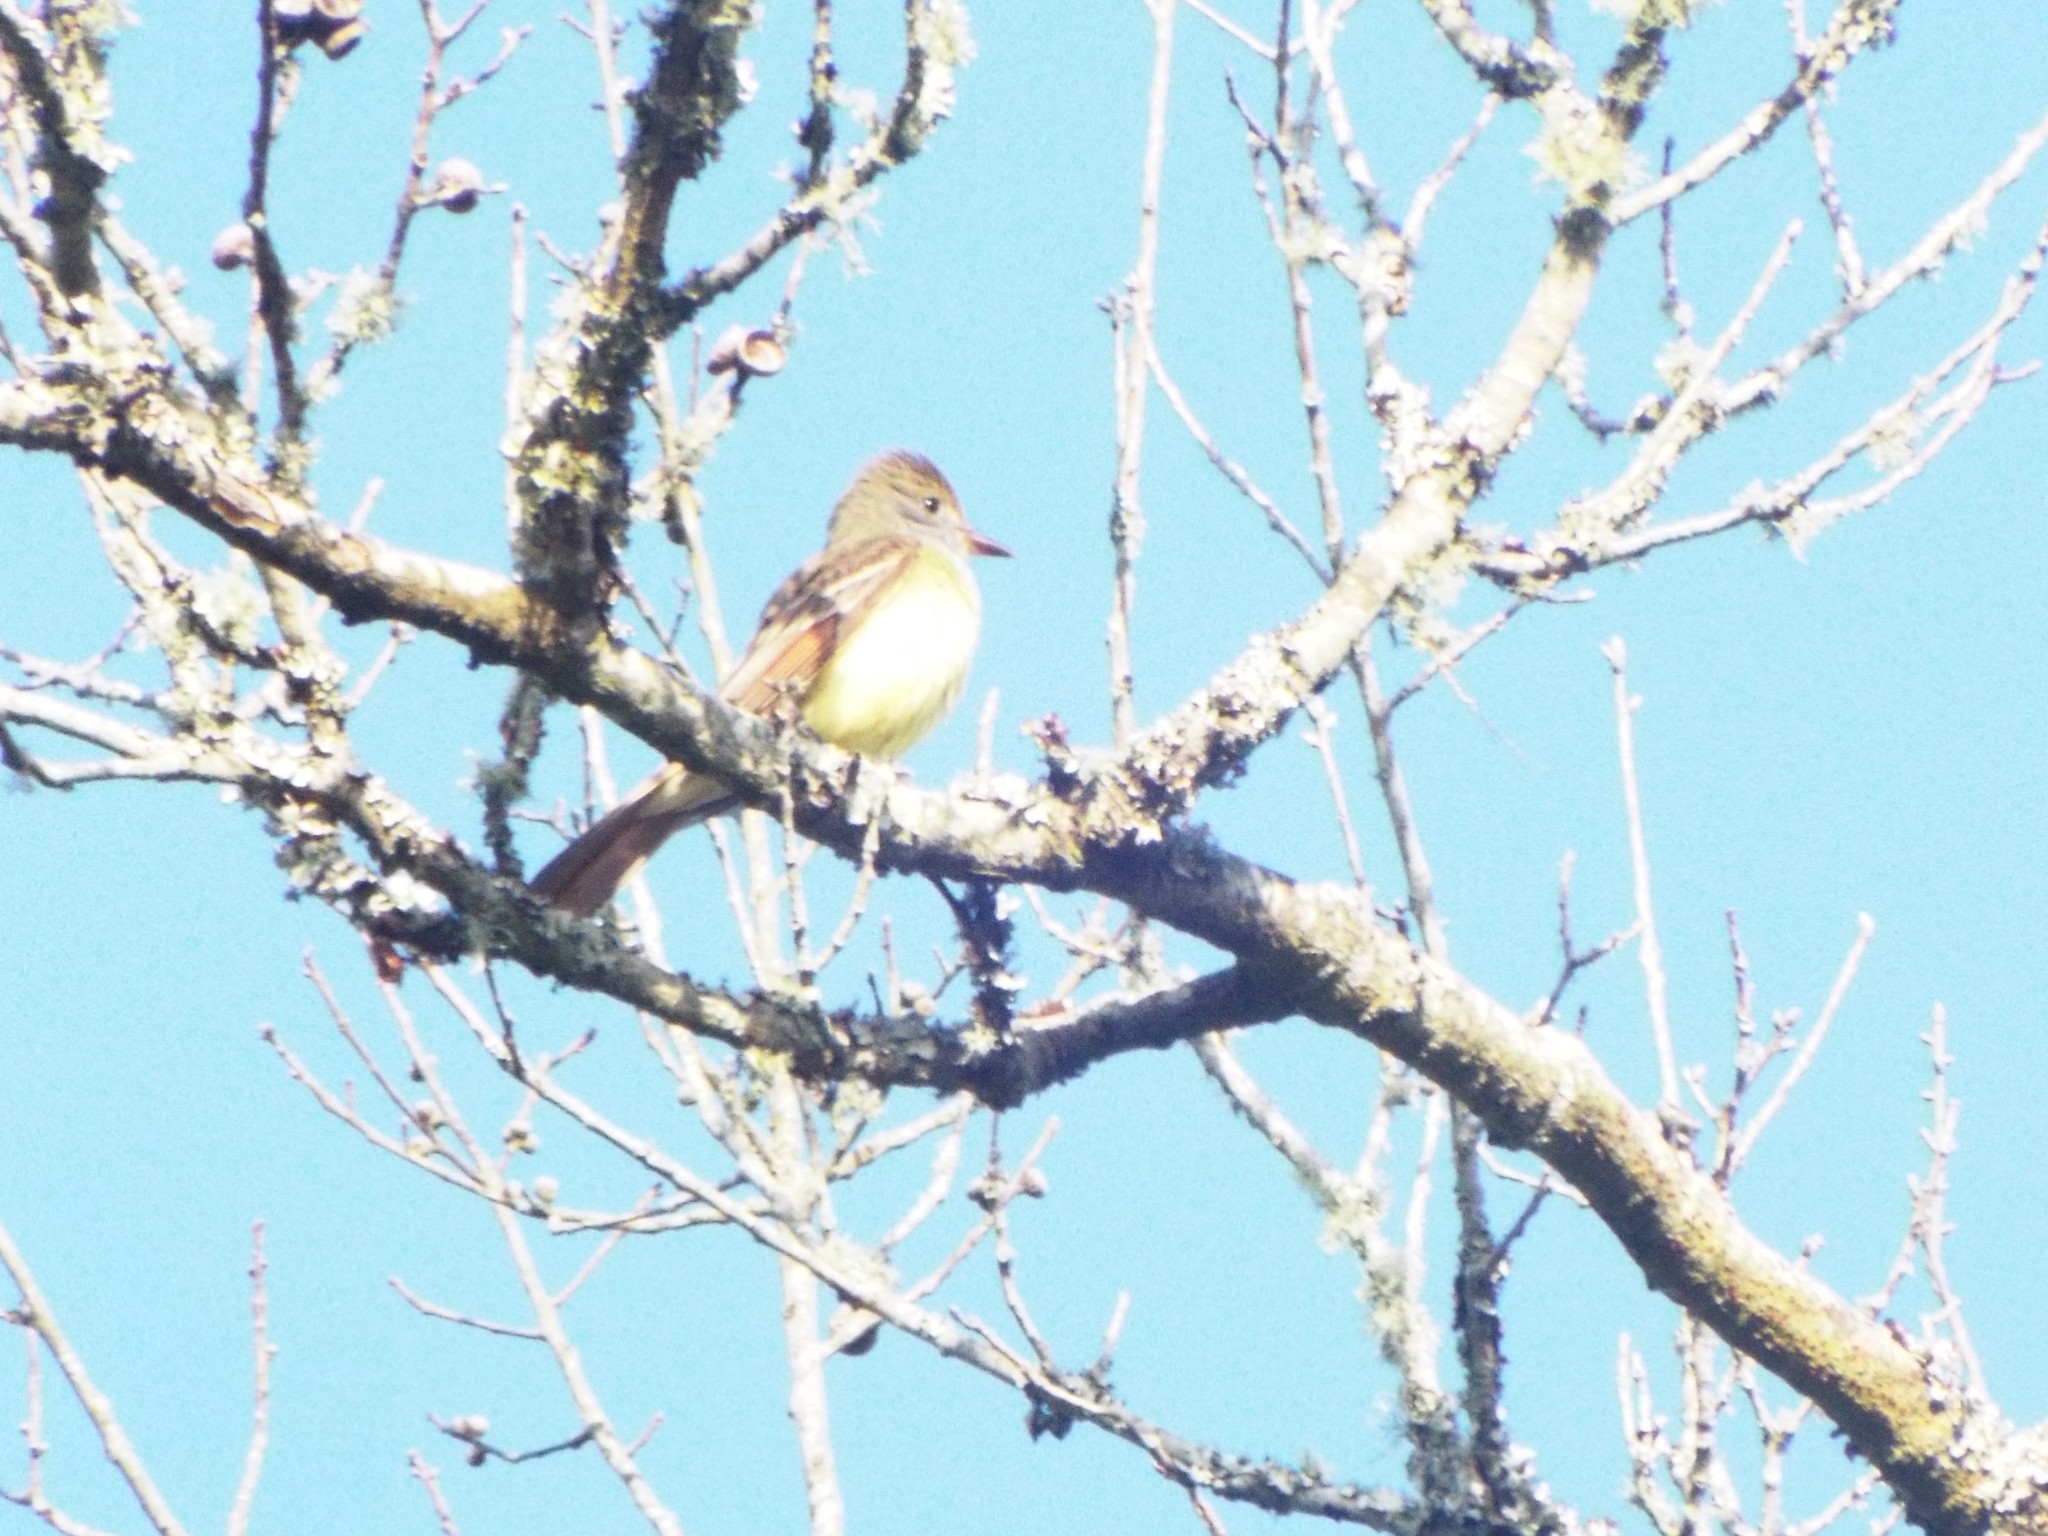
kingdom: Animalia
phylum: Chordata
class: Aves
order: Passeriformes
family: Tyrannidae
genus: Myiarchus
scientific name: Myiarchus crinitus
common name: Great crested flycatcher
